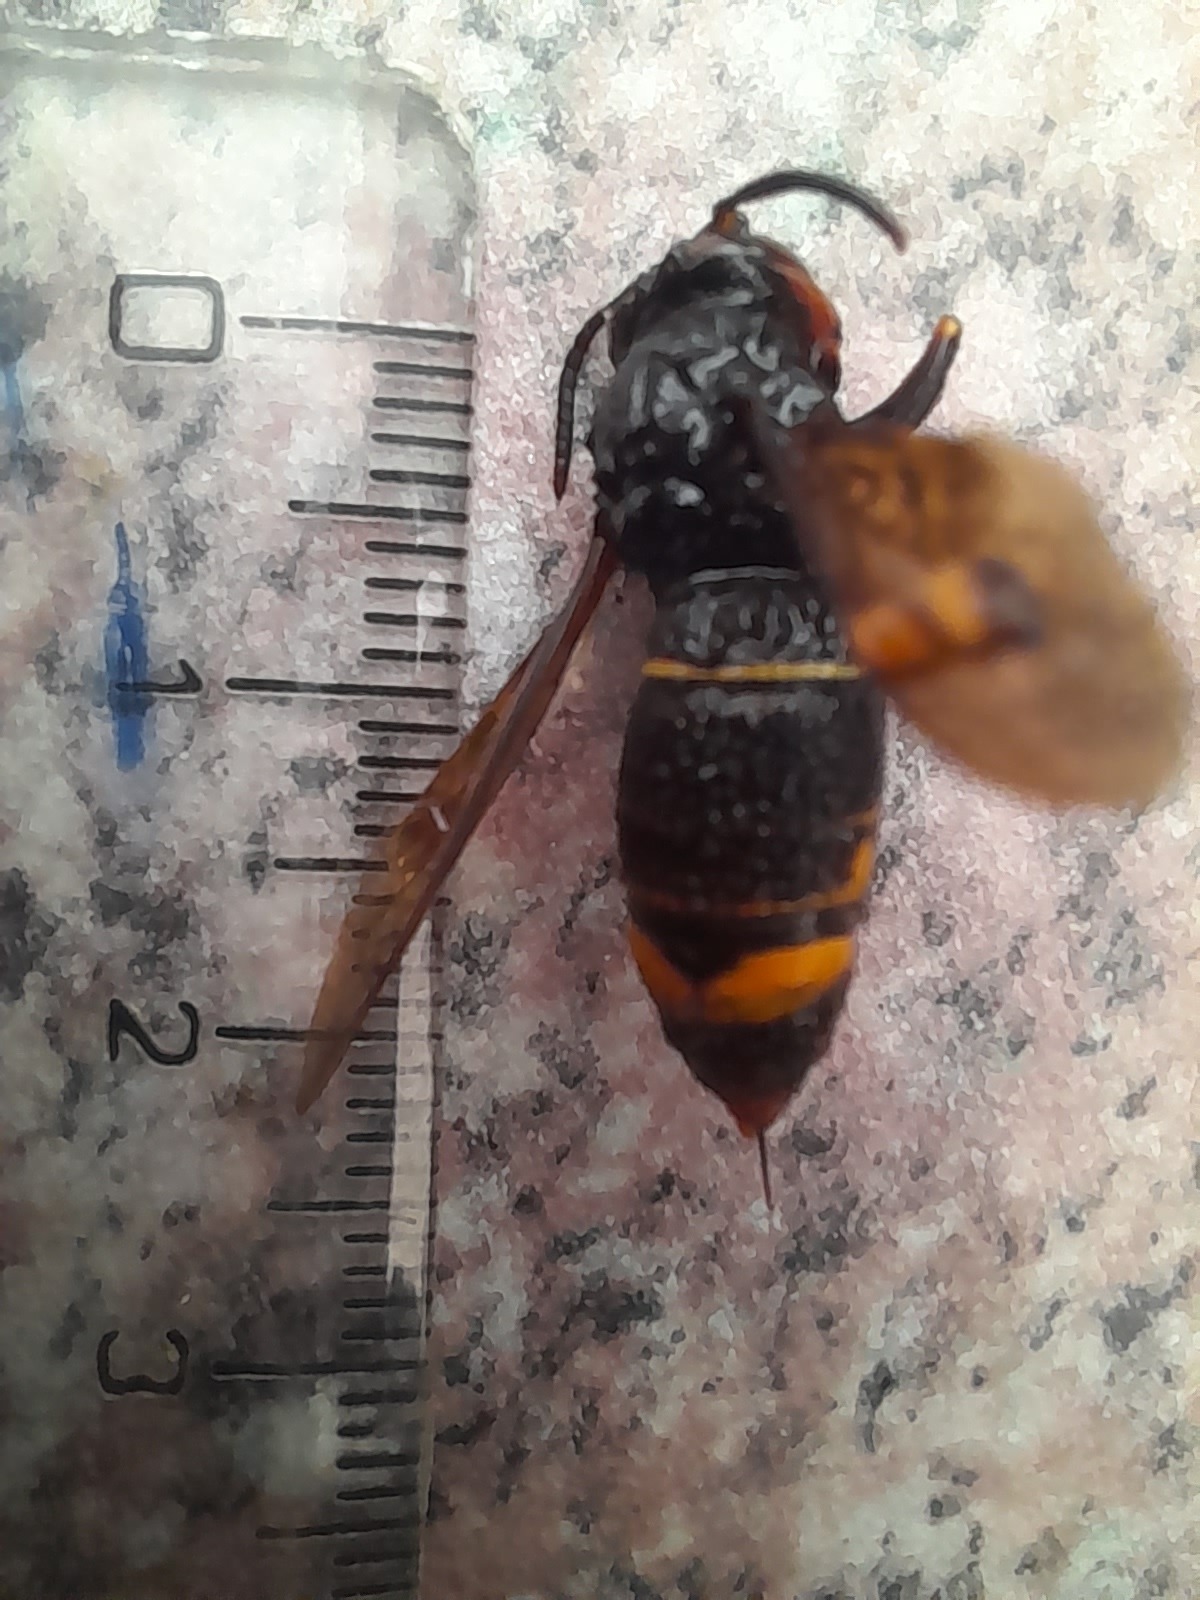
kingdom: Animalia
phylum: Arthropoda
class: Insecta
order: Hymenoptera
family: Vespidae
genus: Vespa
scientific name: Vespa velutina
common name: Asian hornet
